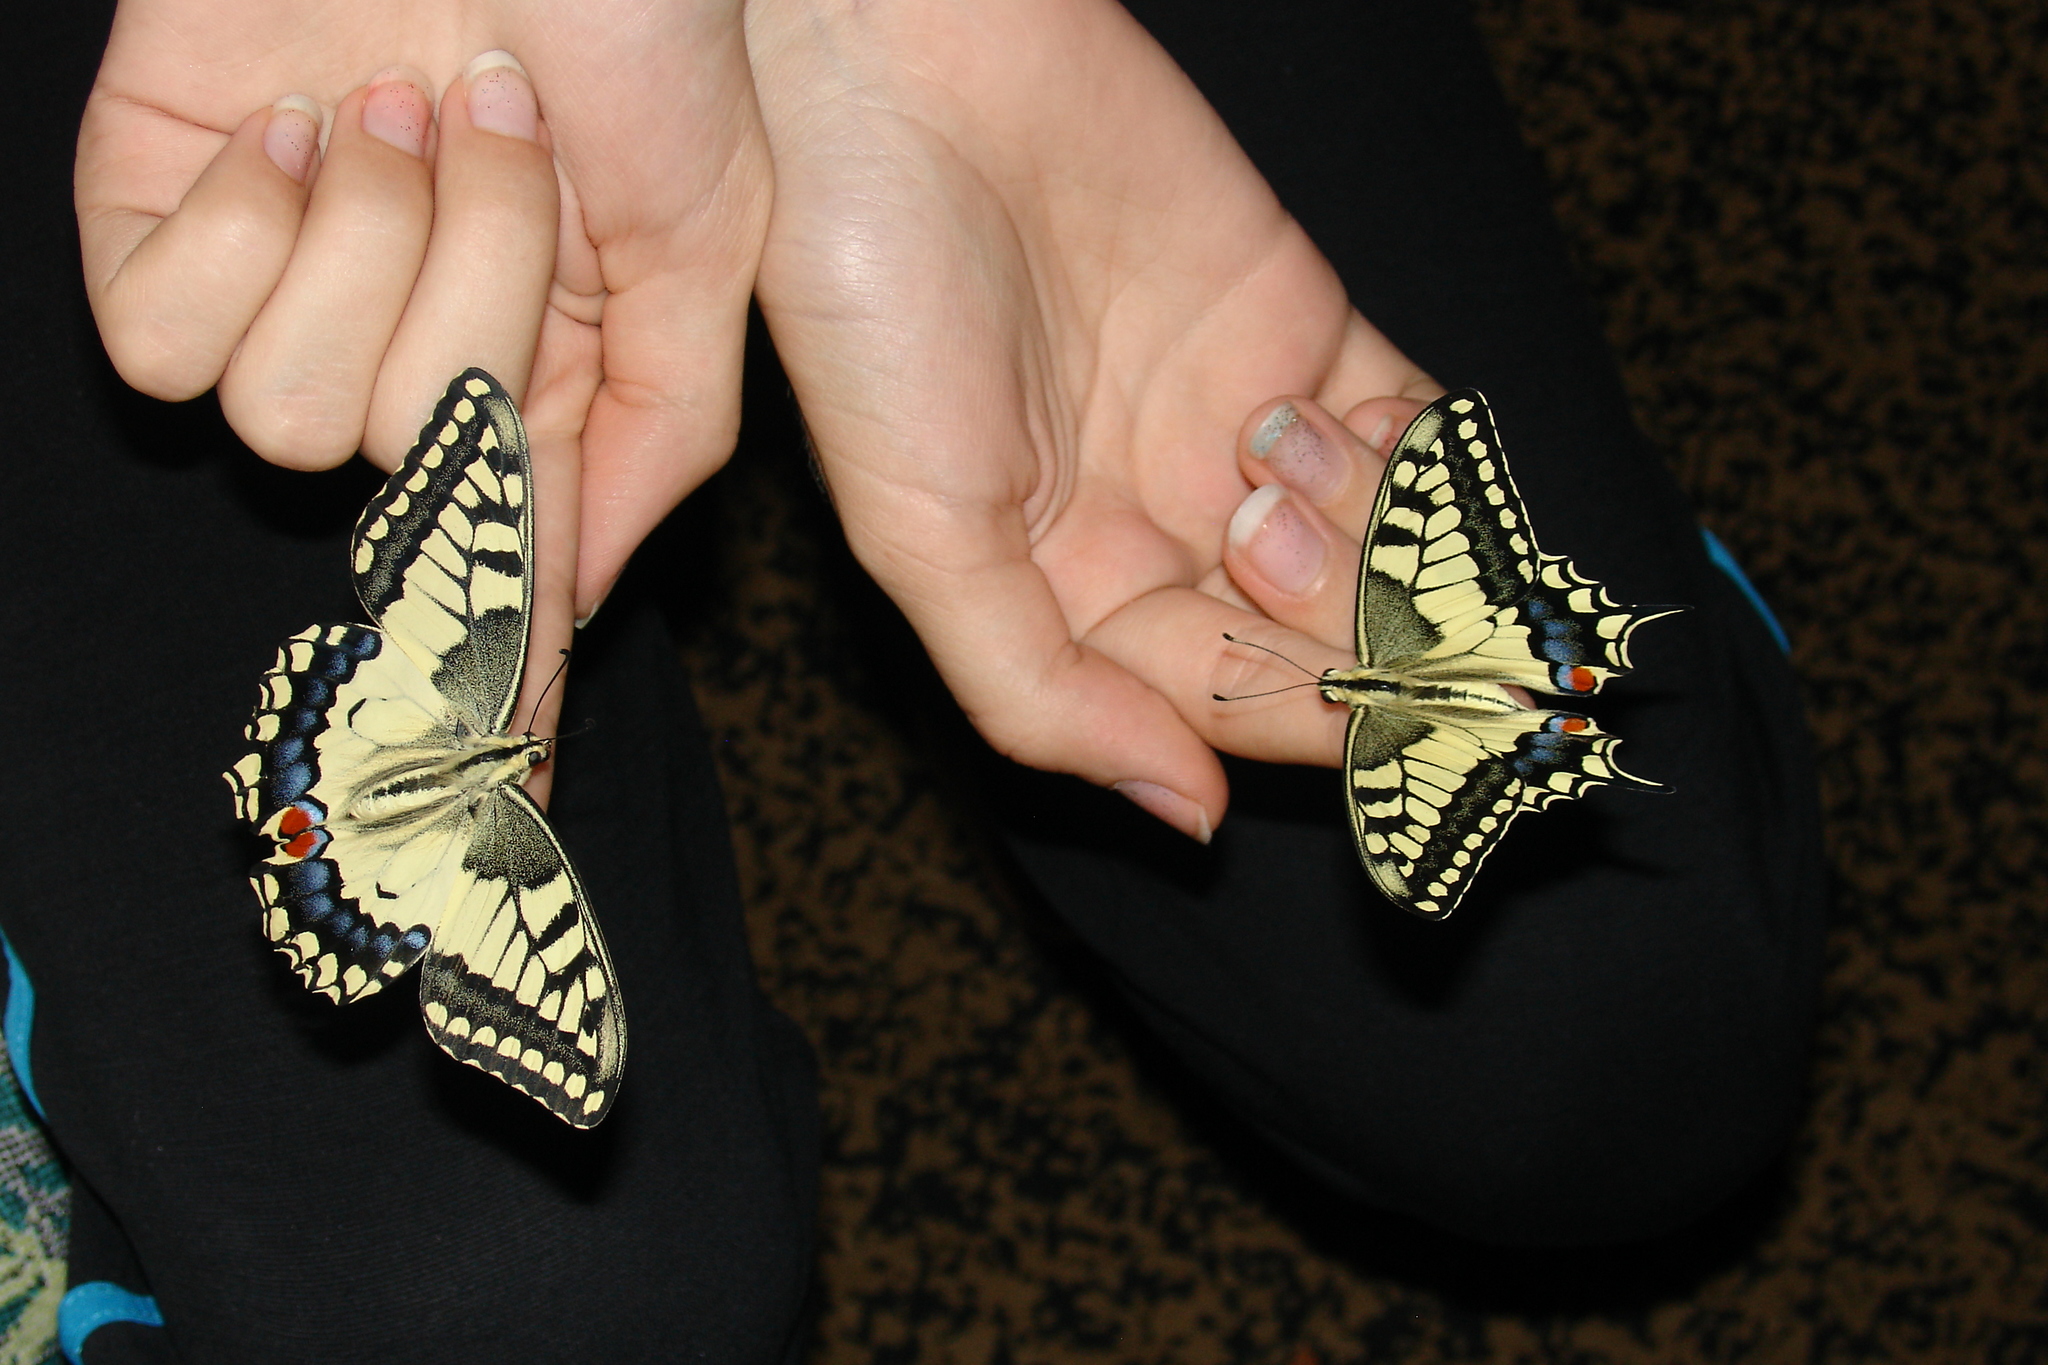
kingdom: Animalia
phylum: Arthropoda
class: Insecta
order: Lepidoptera
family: Papilionidae
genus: Papilio
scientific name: Papilio machaon
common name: Swallowtail
